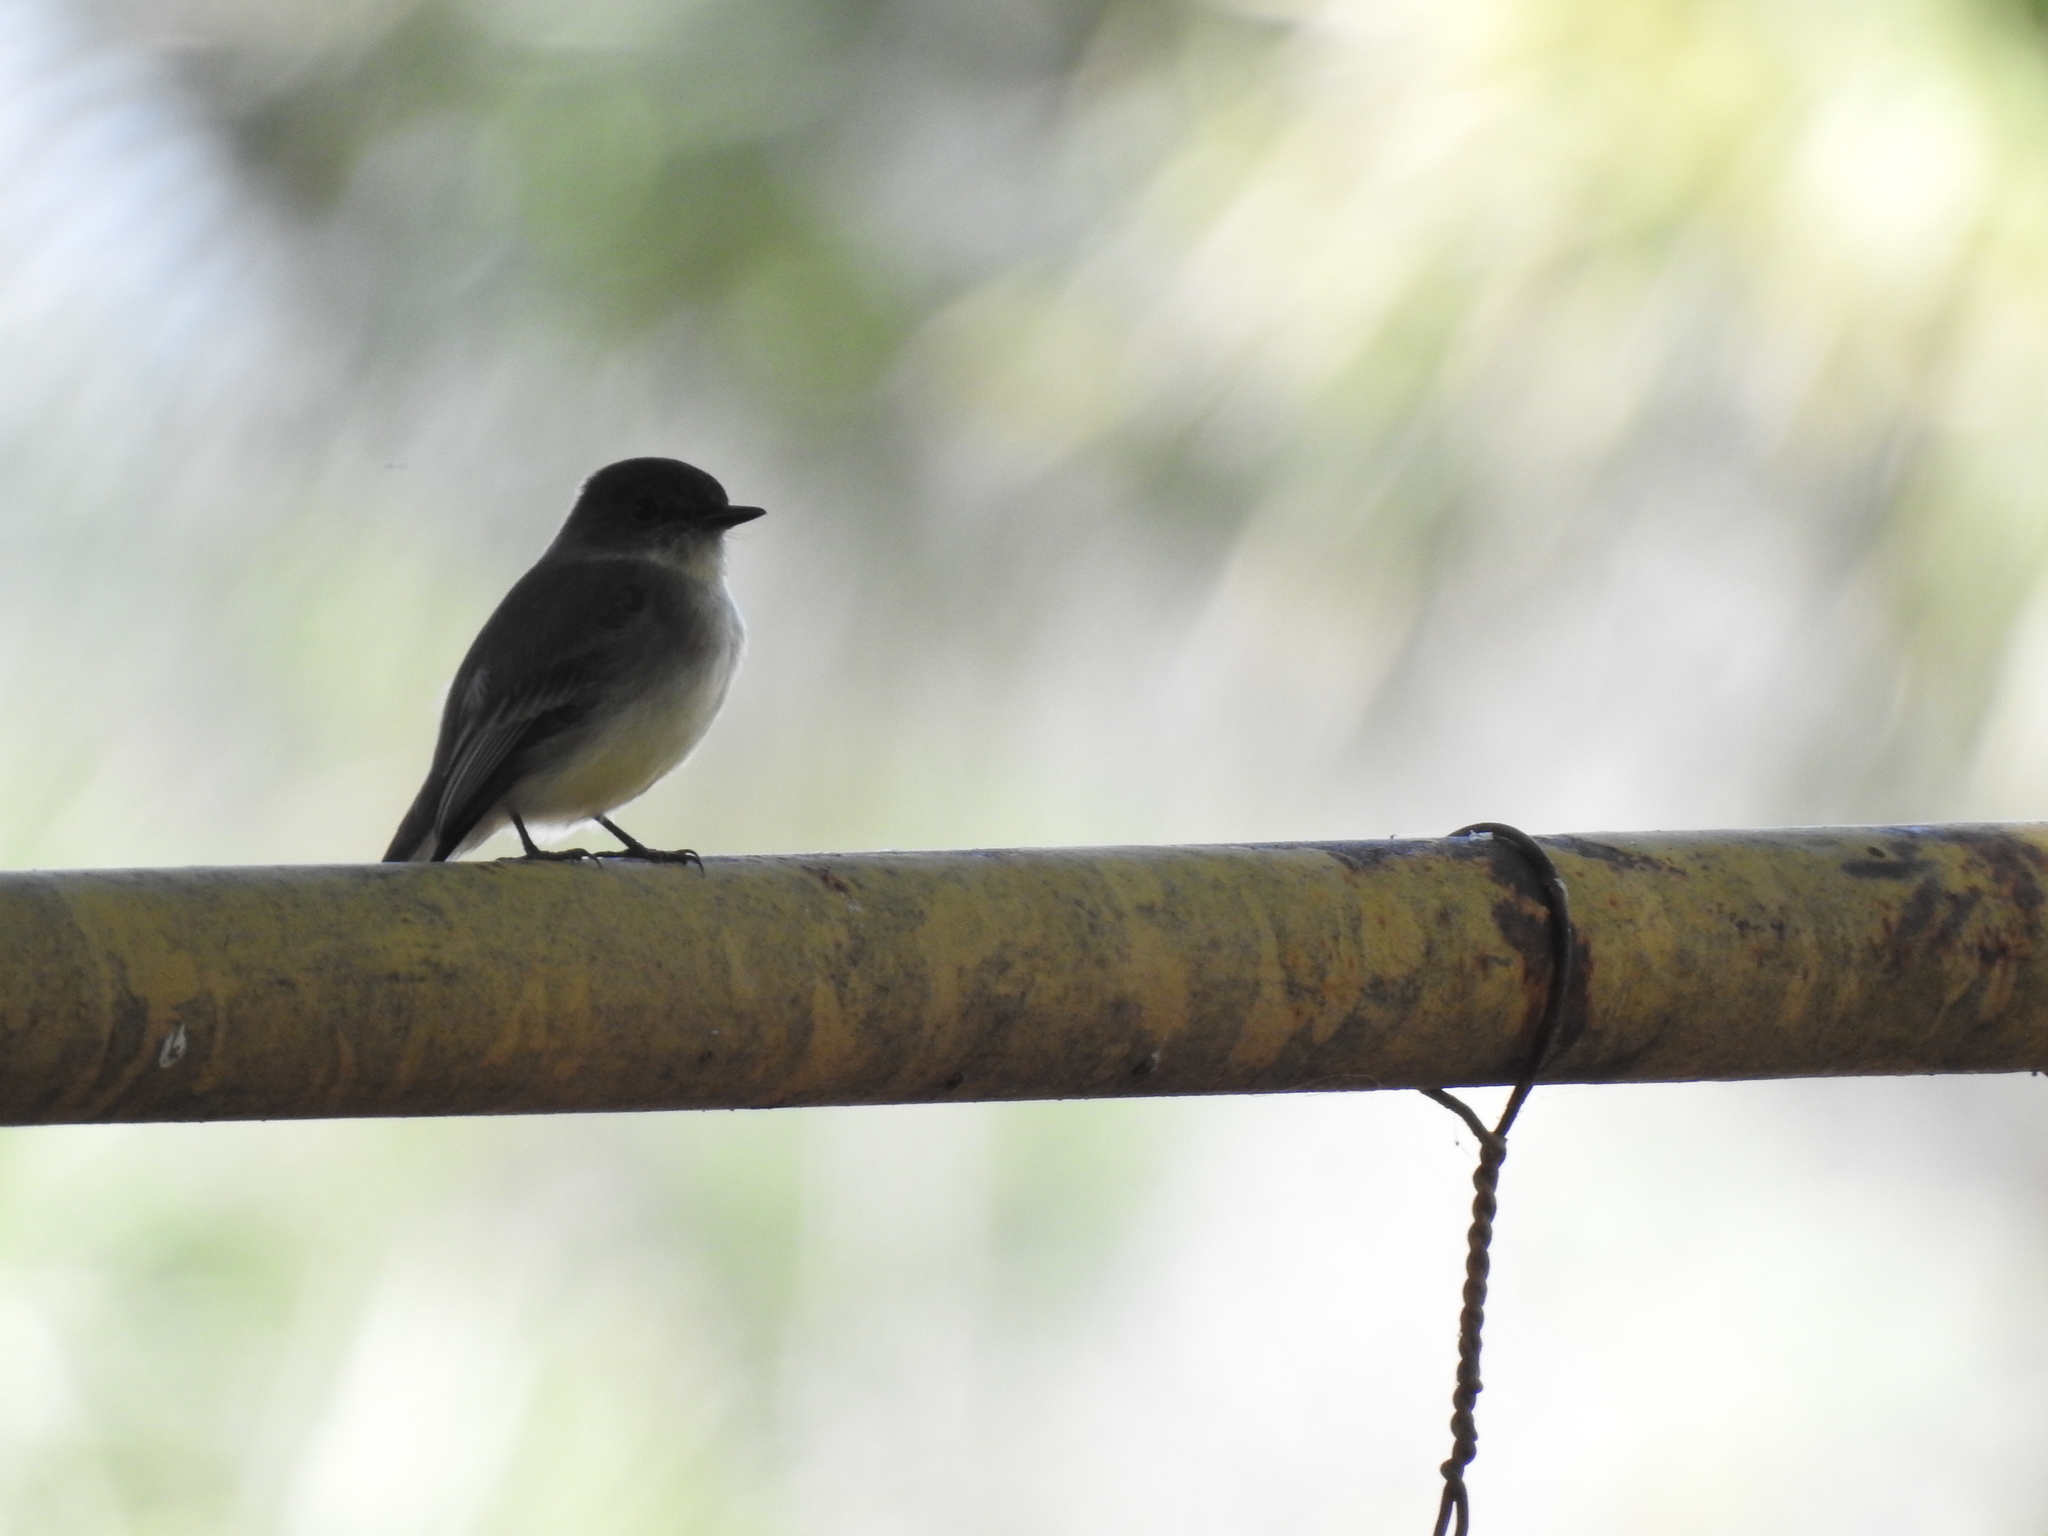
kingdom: Animalia
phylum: Chordata
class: Aves
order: Passeriformes
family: Tyrannidae
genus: Sayornis
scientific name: Sayornis phoebe
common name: Eastern phoebe
